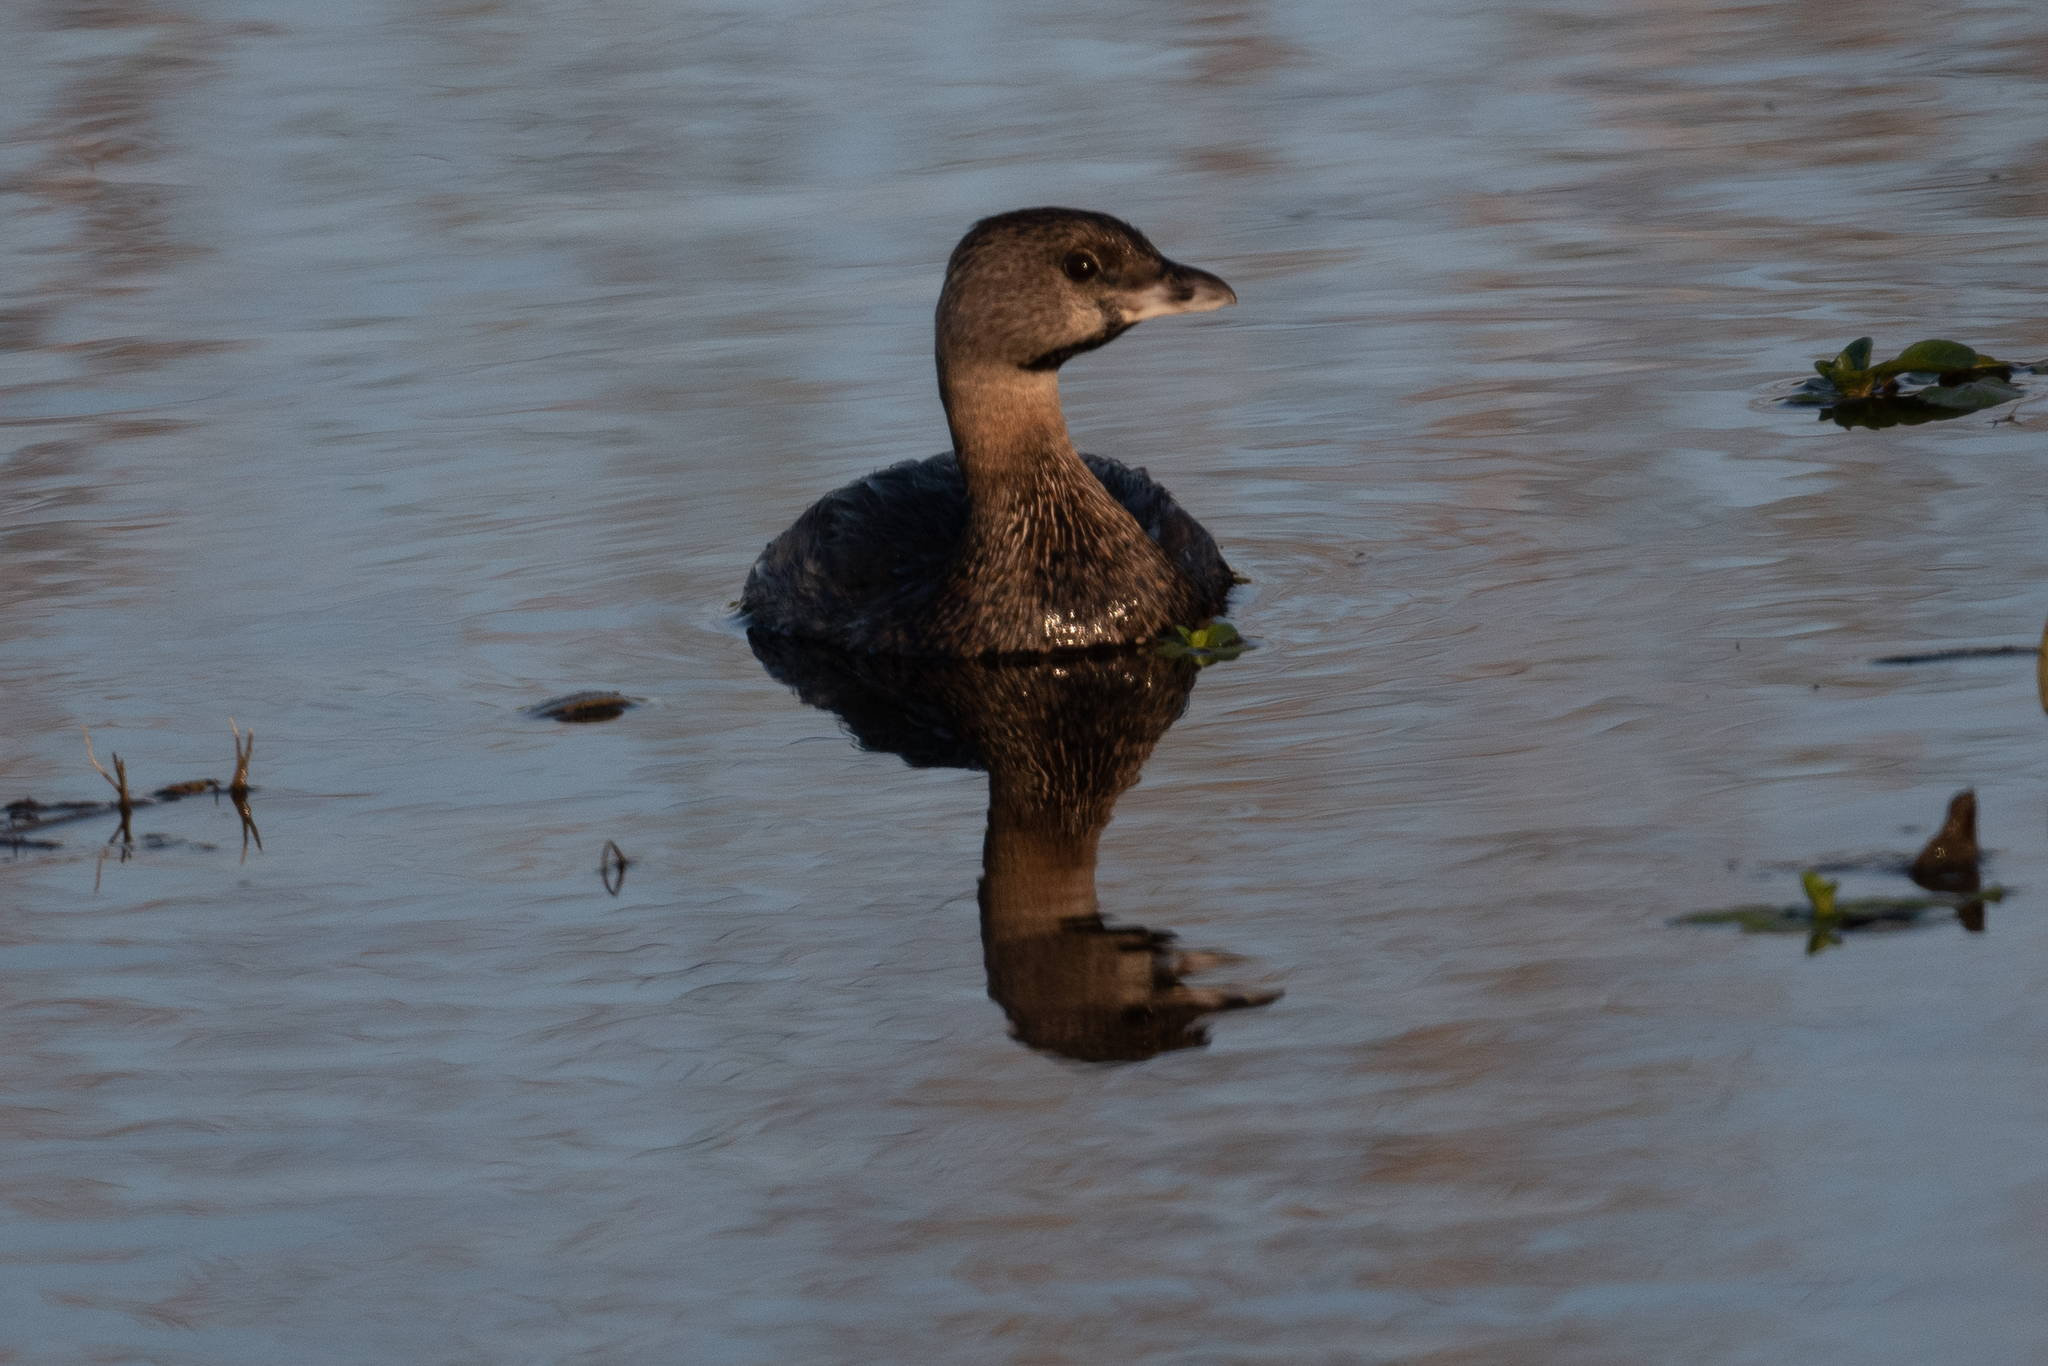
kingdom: Animalia
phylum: Chordata
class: Aves
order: Podicipediformes
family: Podicipedidae
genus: Podilymbus
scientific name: Podilymbus podiceps
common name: Pied-billed grebe
